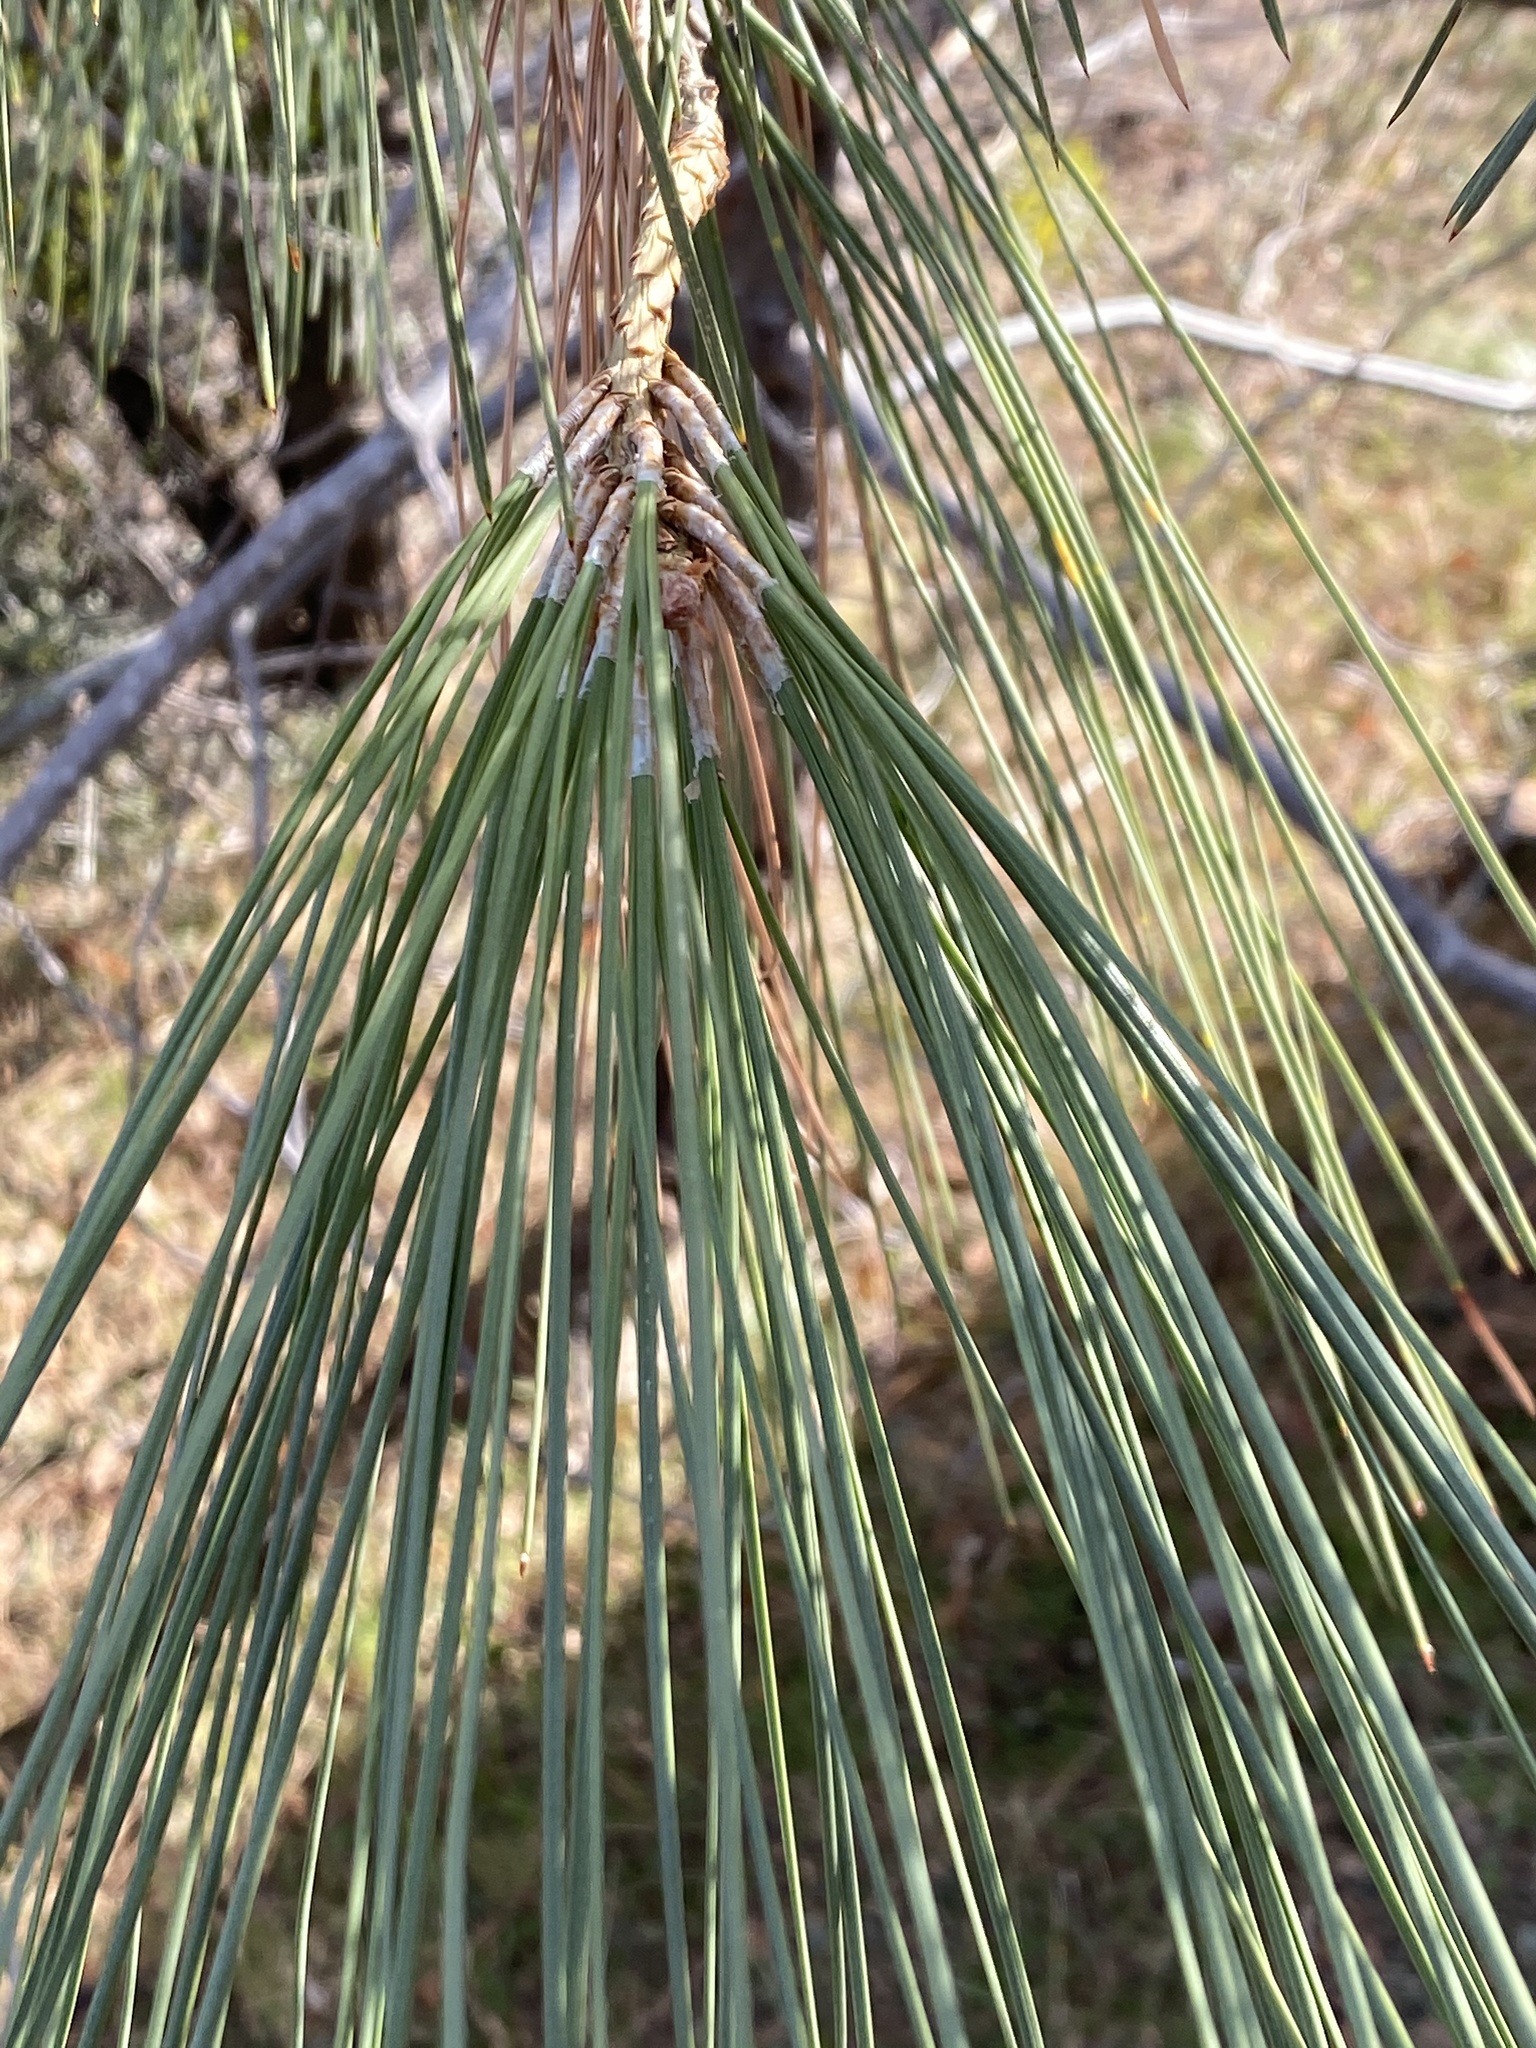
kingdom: Plantae
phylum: Tracheophyta
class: Pinopsida
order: Pinales
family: Pinaceae
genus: Pinus
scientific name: Pinus sabiniana
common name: Bull pine
